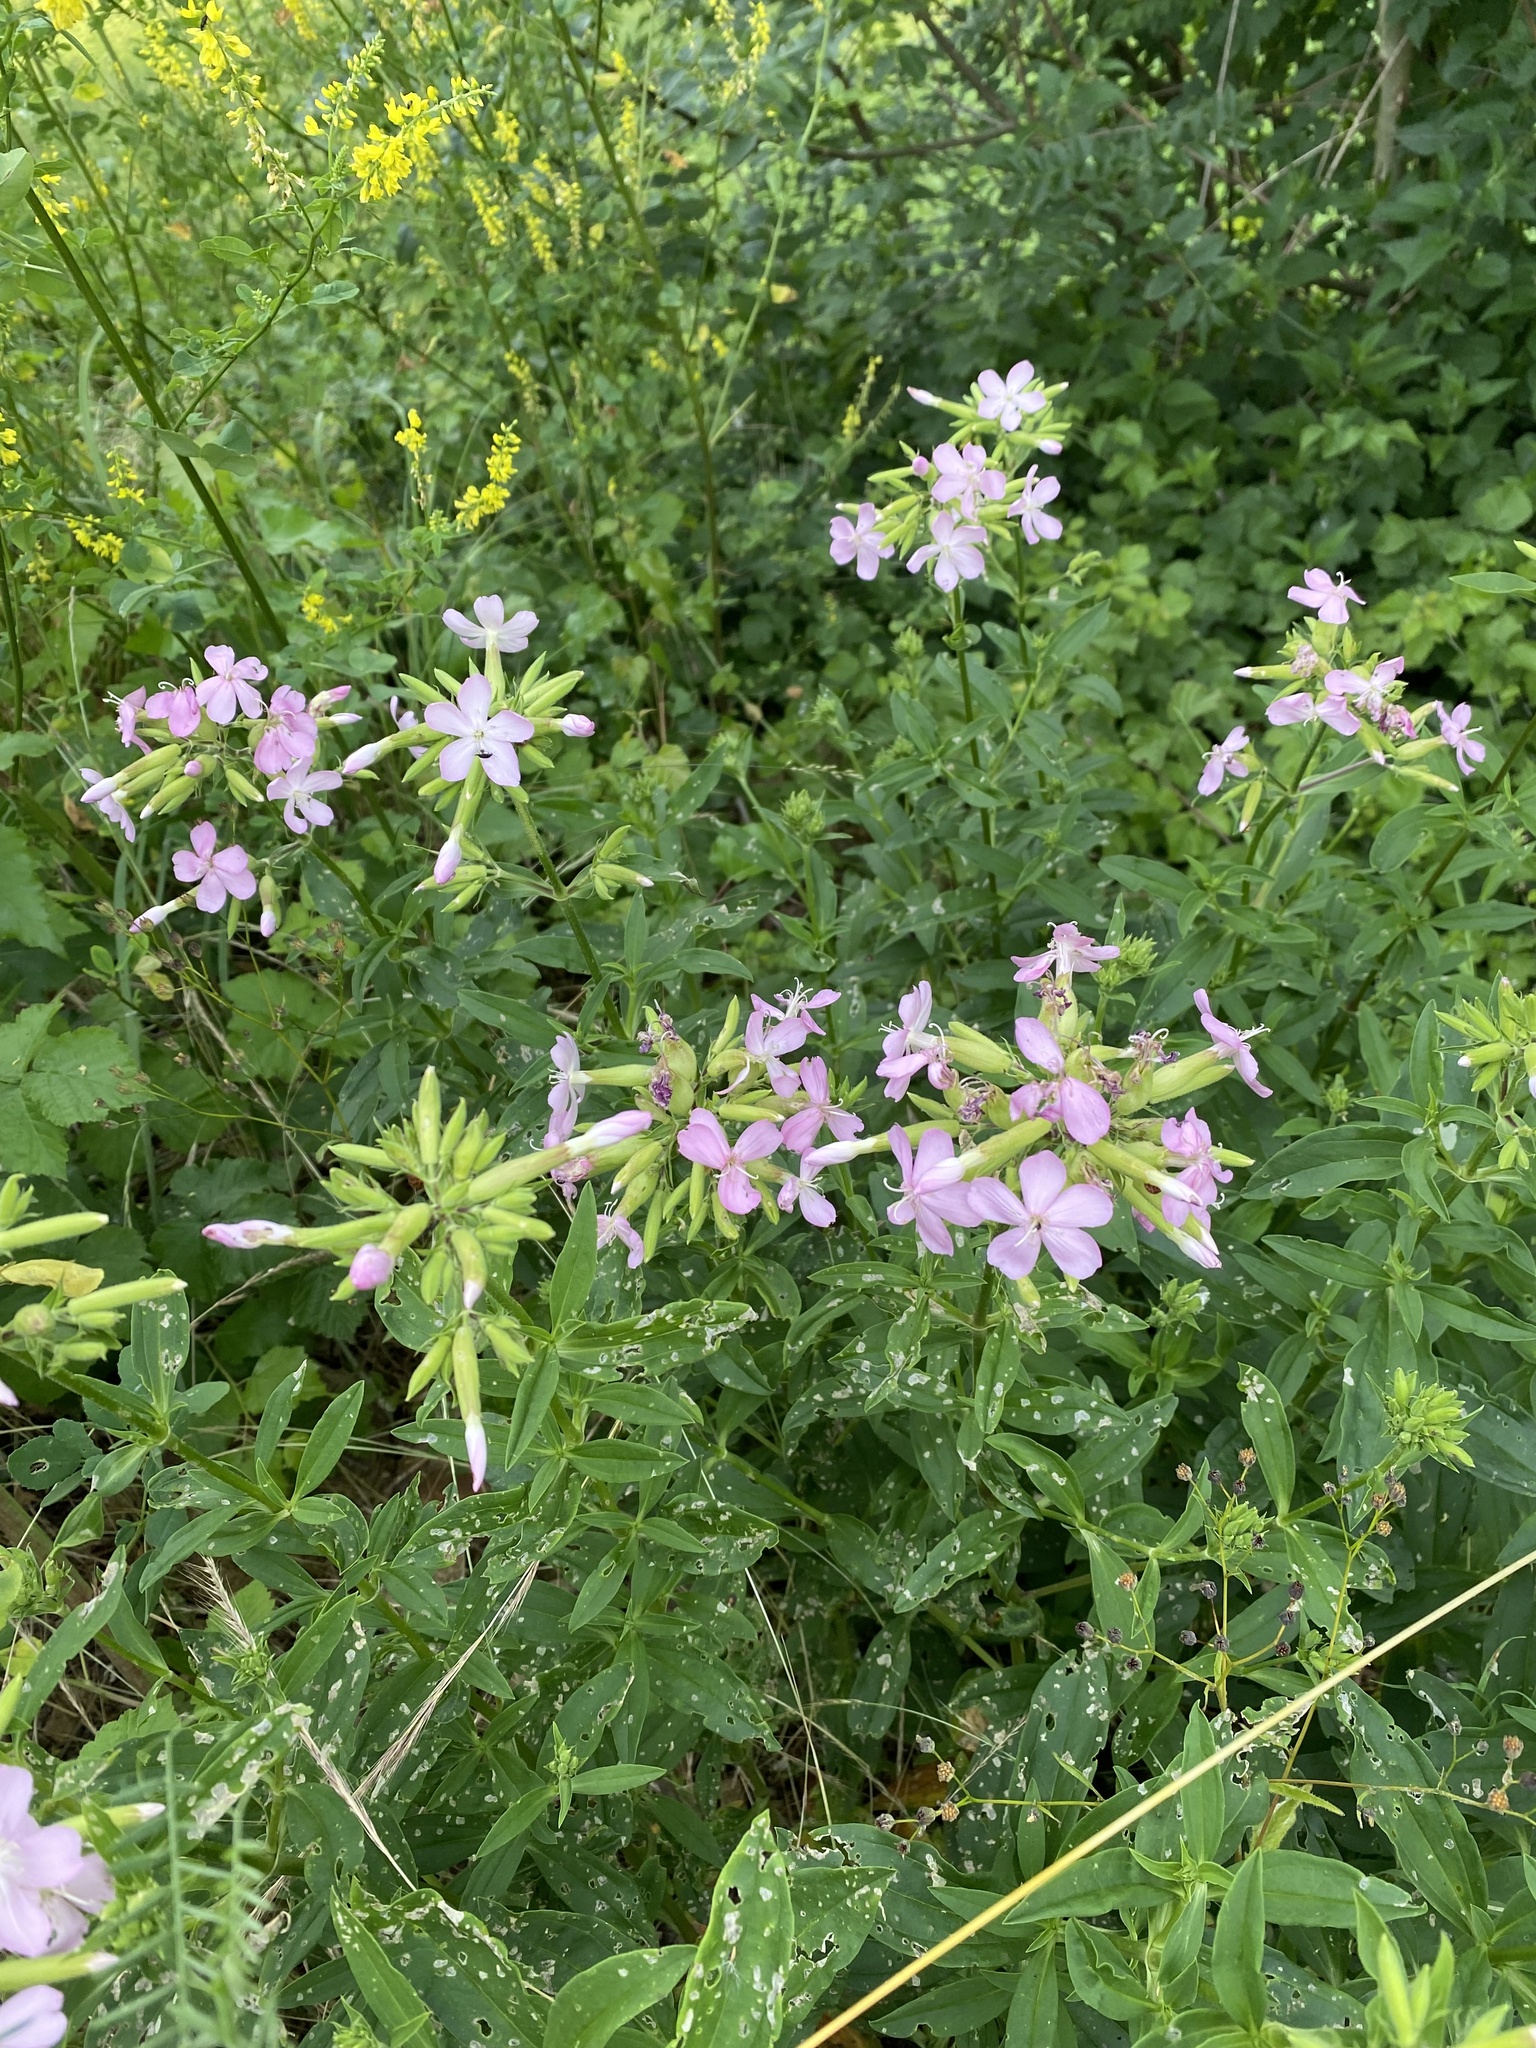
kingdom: Plantae
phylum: Tracheophyta
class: Magnoliopsida
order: Caryophyllales
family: Caryophyllaceae
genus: Saponaria
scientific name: Saponaria officinalis
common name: Soapwort
